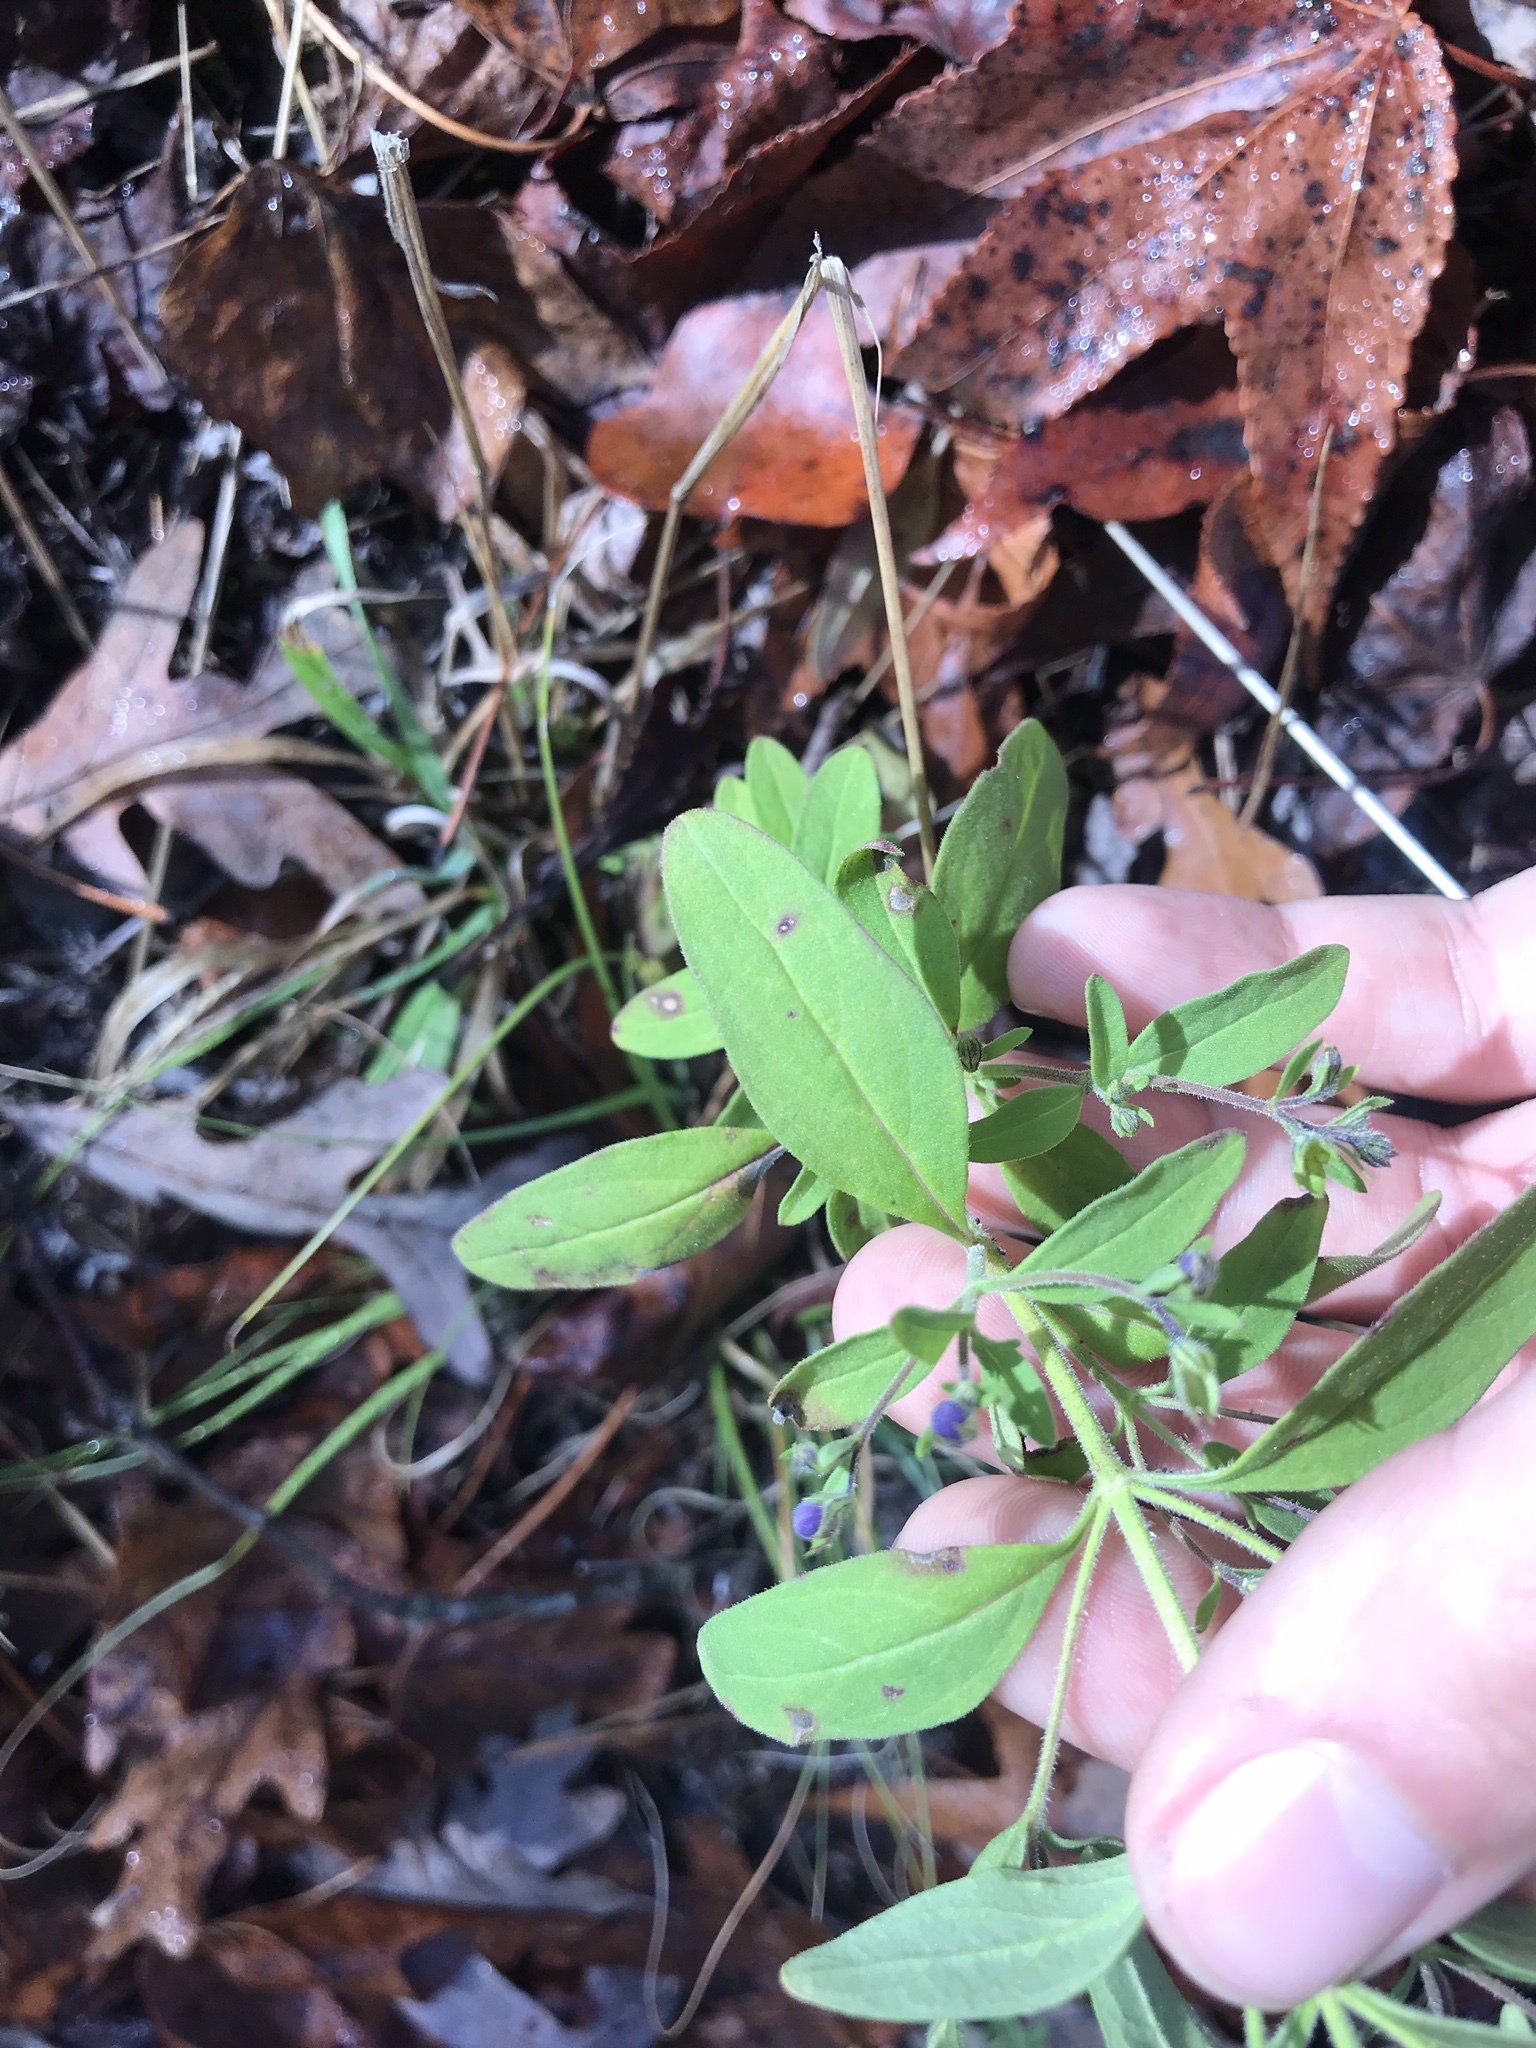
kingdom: Plantae
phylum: Tracheophyta
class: Magnoliopsida
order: Lamiales
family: Lamiaceae
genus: Trichostema
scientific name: Trichostema dichotomum
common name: Bastard pennyroyal
